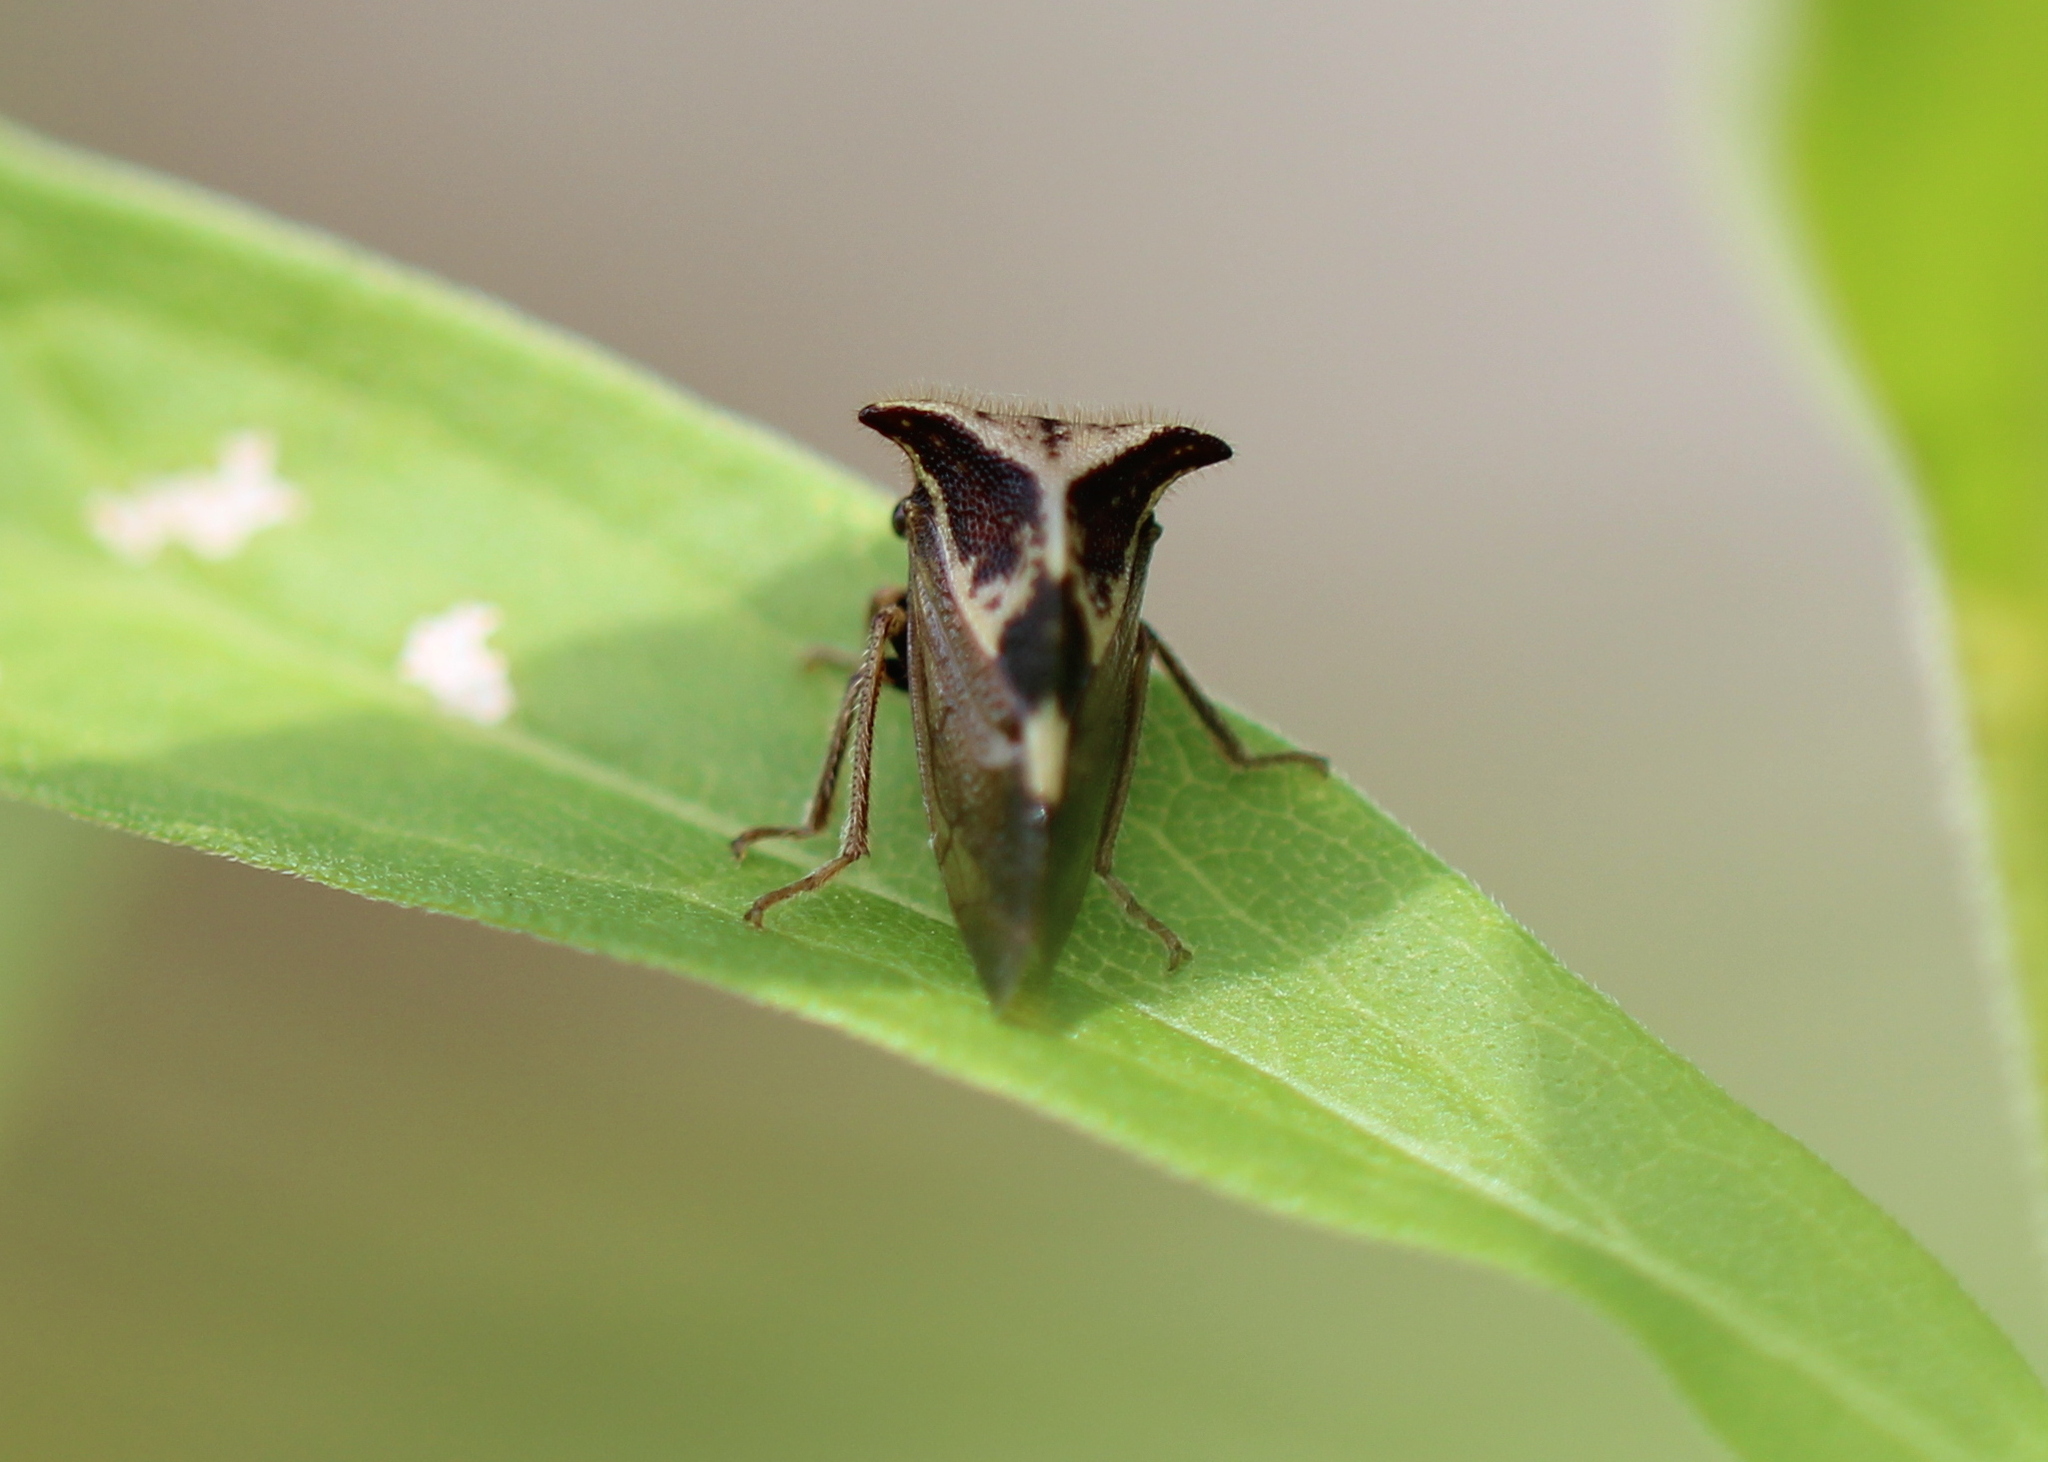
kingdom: Animalia
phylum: Arthropoda
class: Insecta
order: Hemiptera
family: Membracidae
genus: Stictocephala
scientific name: Stictocephala diceros
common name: Two-horned treehopper
